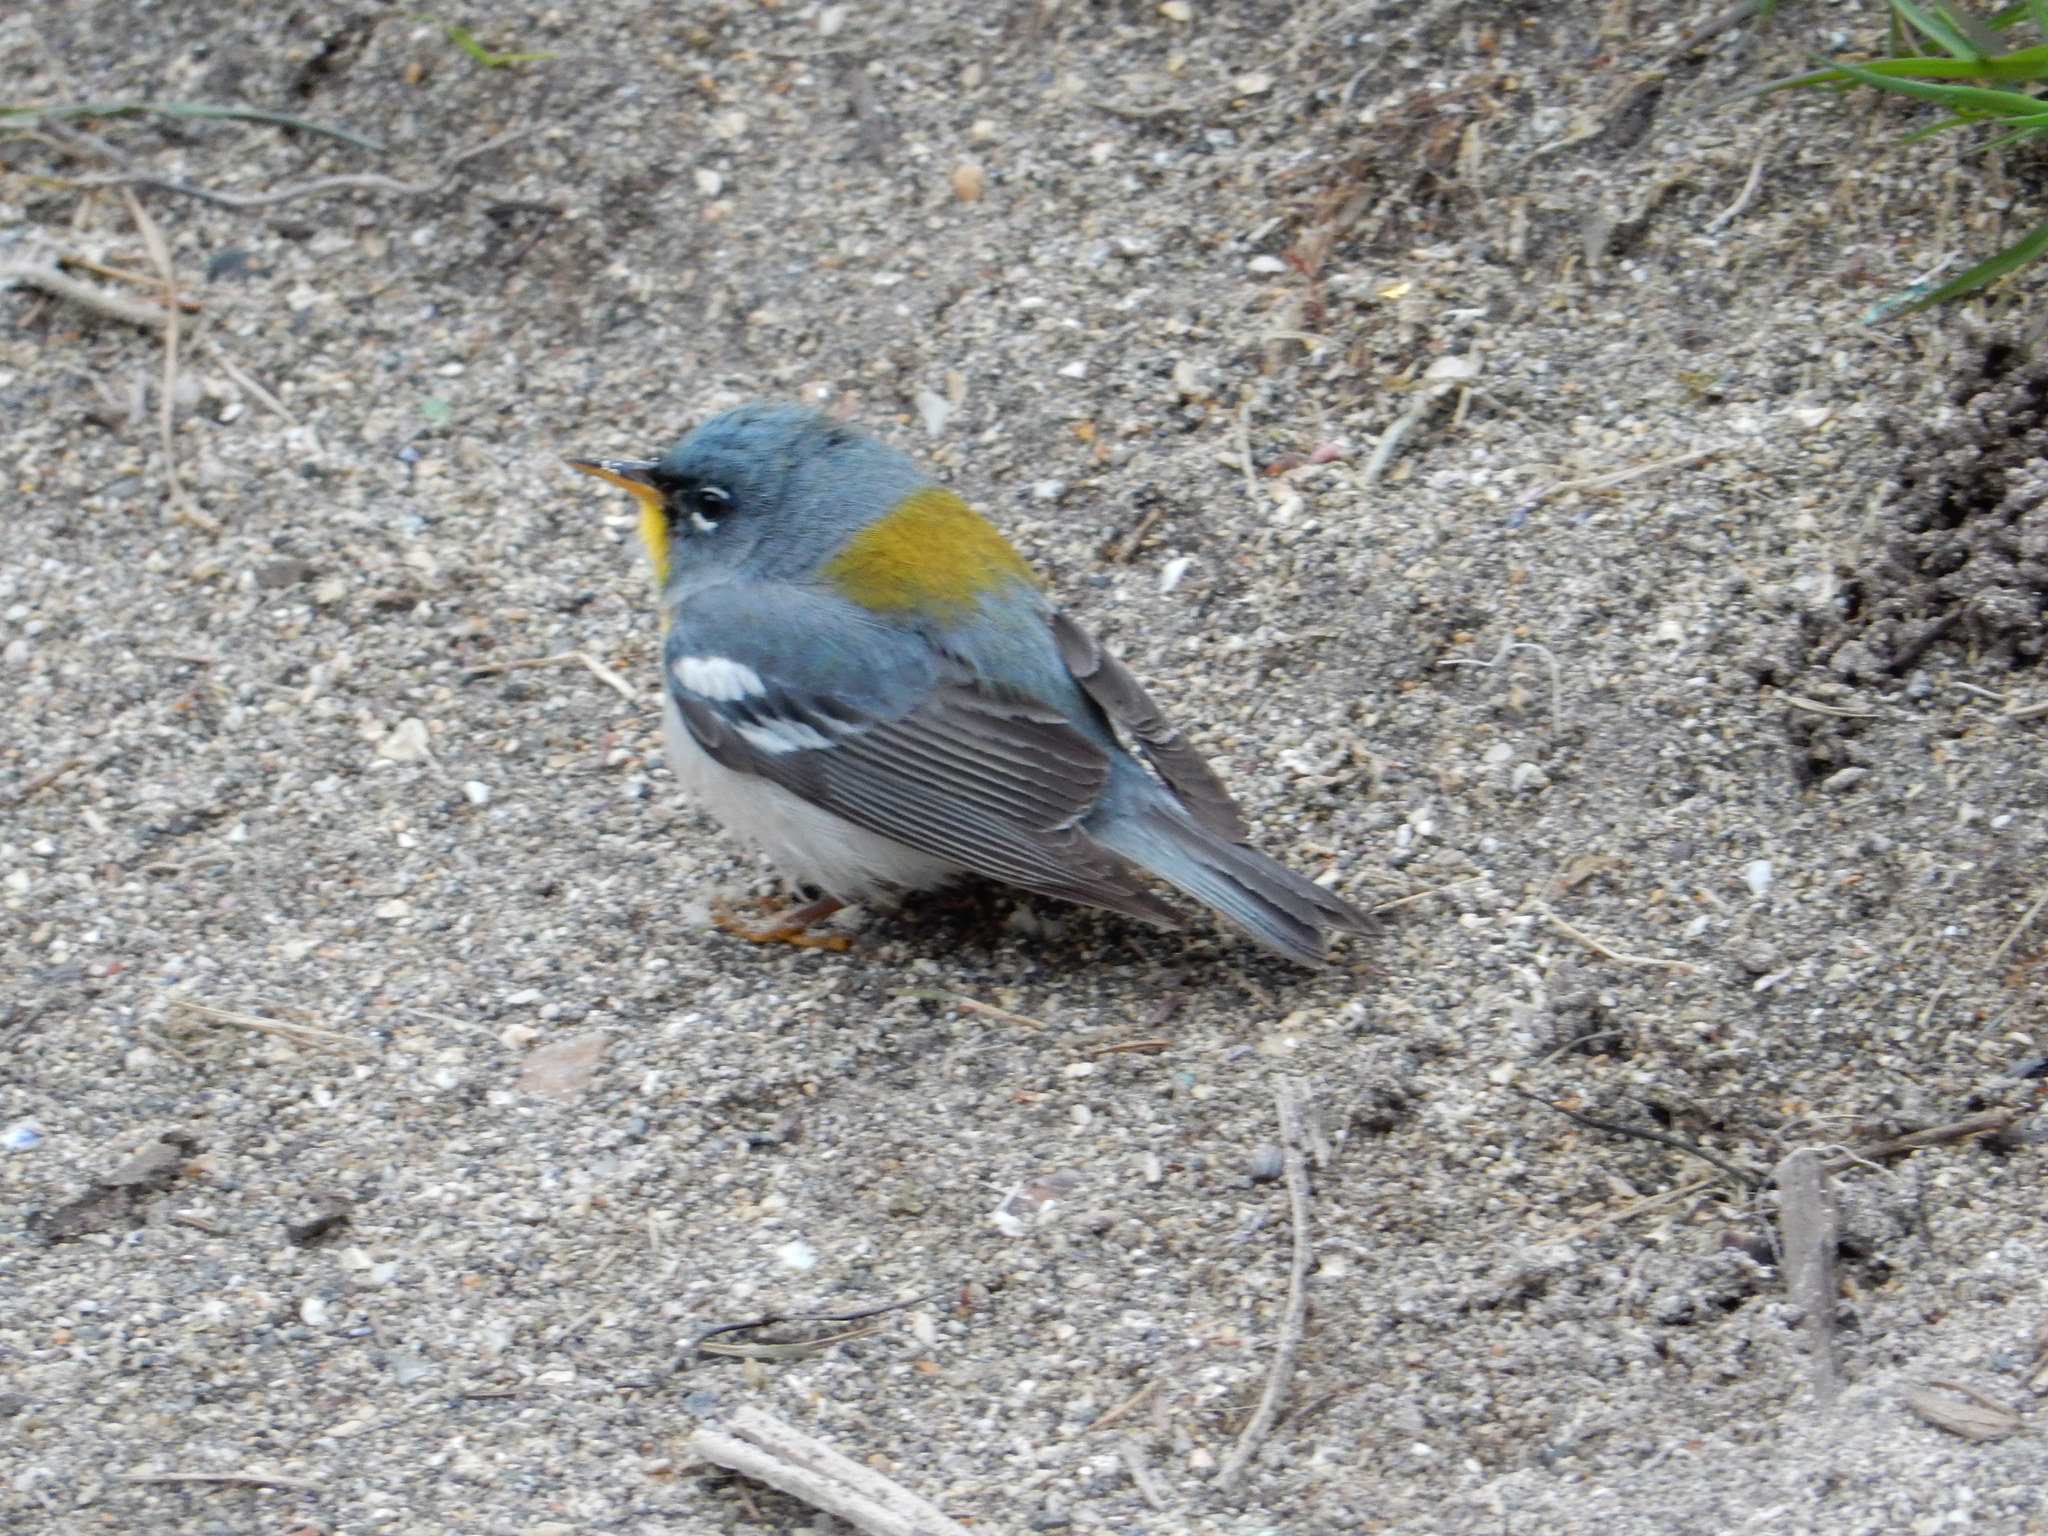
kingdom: Animalia
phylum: Chordata
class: Aves
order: Passeriformes
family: Parulidae
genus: Setophaga
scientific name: Setophaga americana
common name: Northern parula
